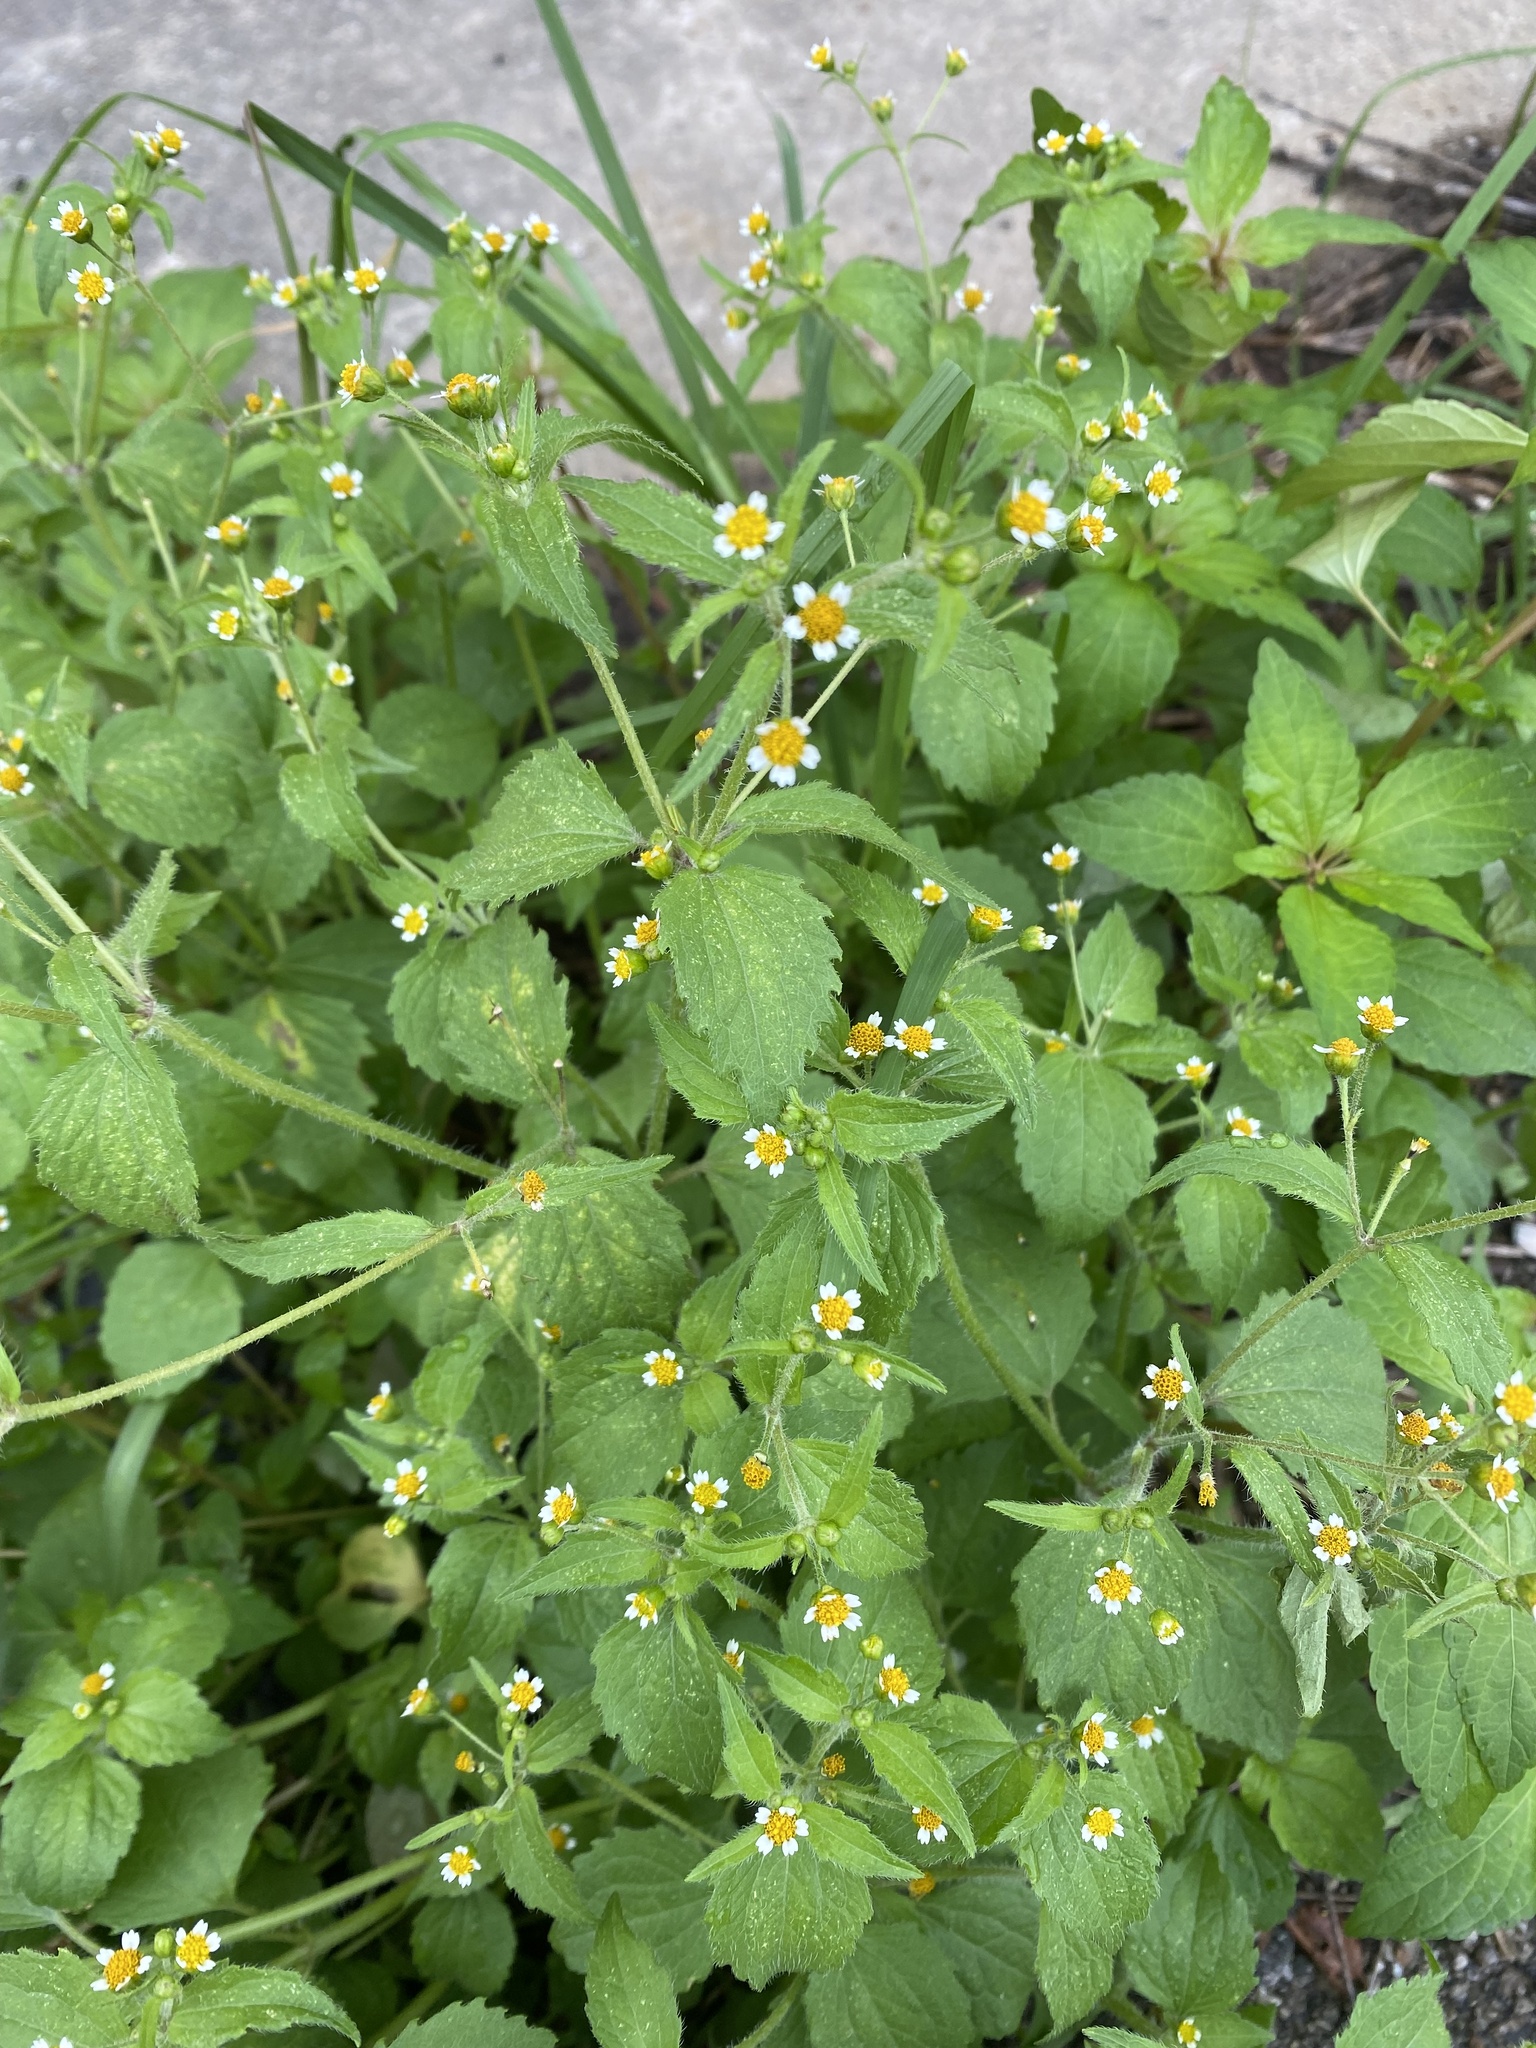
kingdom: Plantae
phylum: Tracheophyta
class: Magnoliopsida
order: Asterales
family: Asteraceae
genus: Galinsoga
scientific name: Galinsoga quadriradiata
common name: Shaggy soldier
